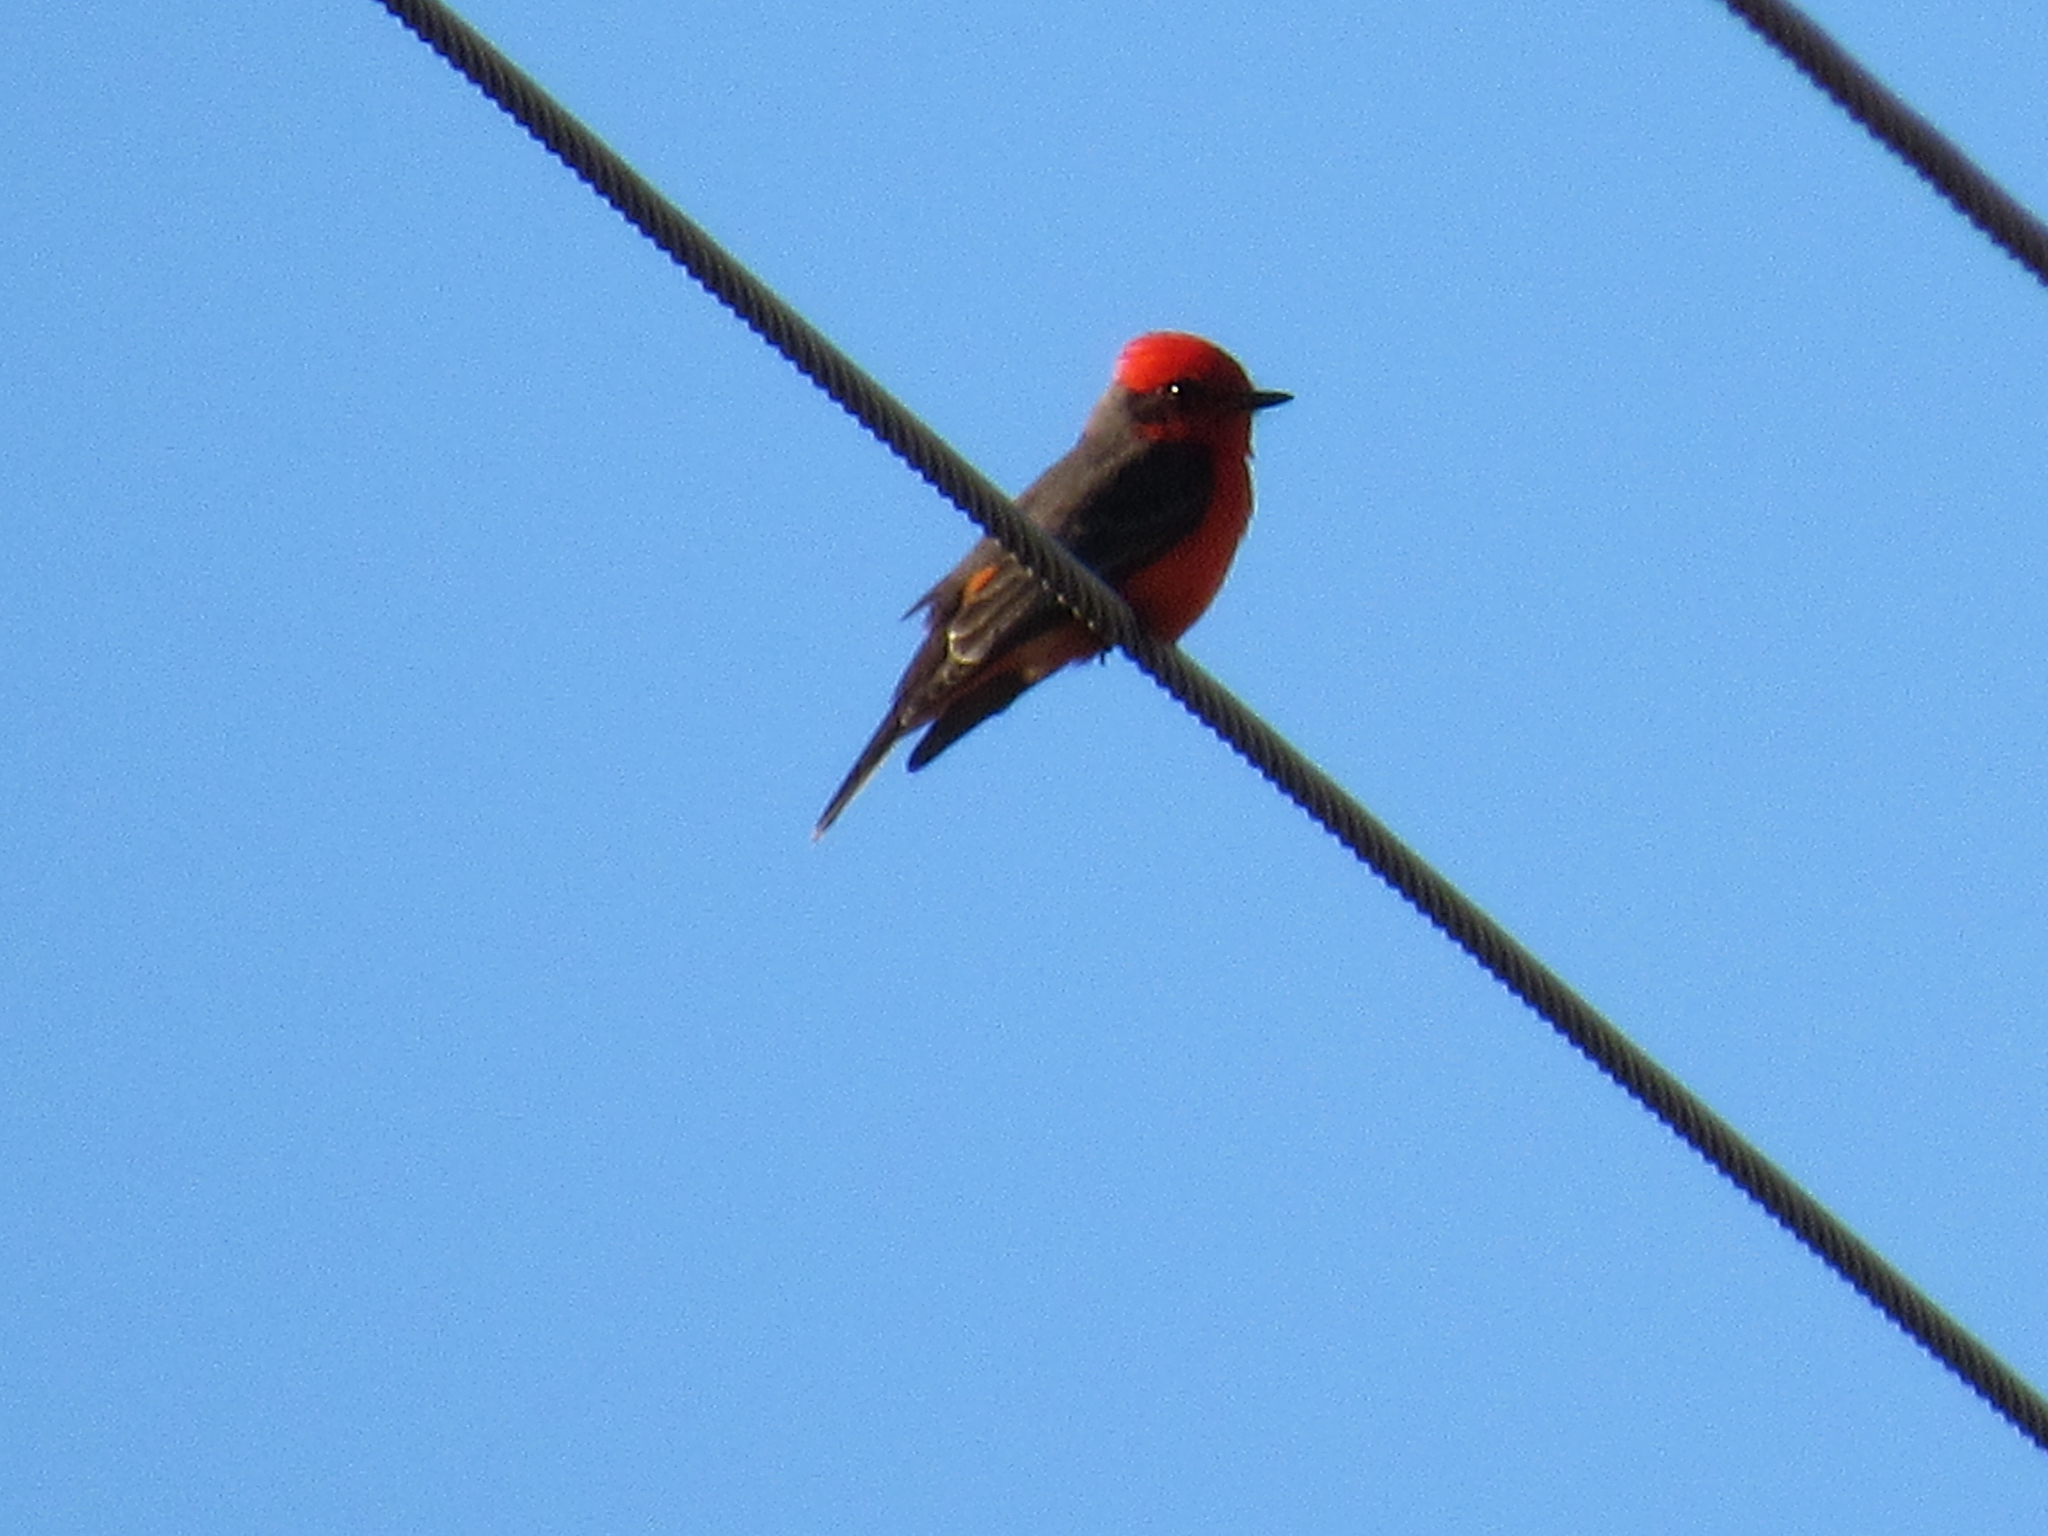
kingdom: Animalia
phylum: Chordata
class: Aves
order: Passeriformes
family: Tyrannidae
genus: Pyrocephalus
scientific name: Pyrocephalus rubinus
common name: Vermilion flycatcher
